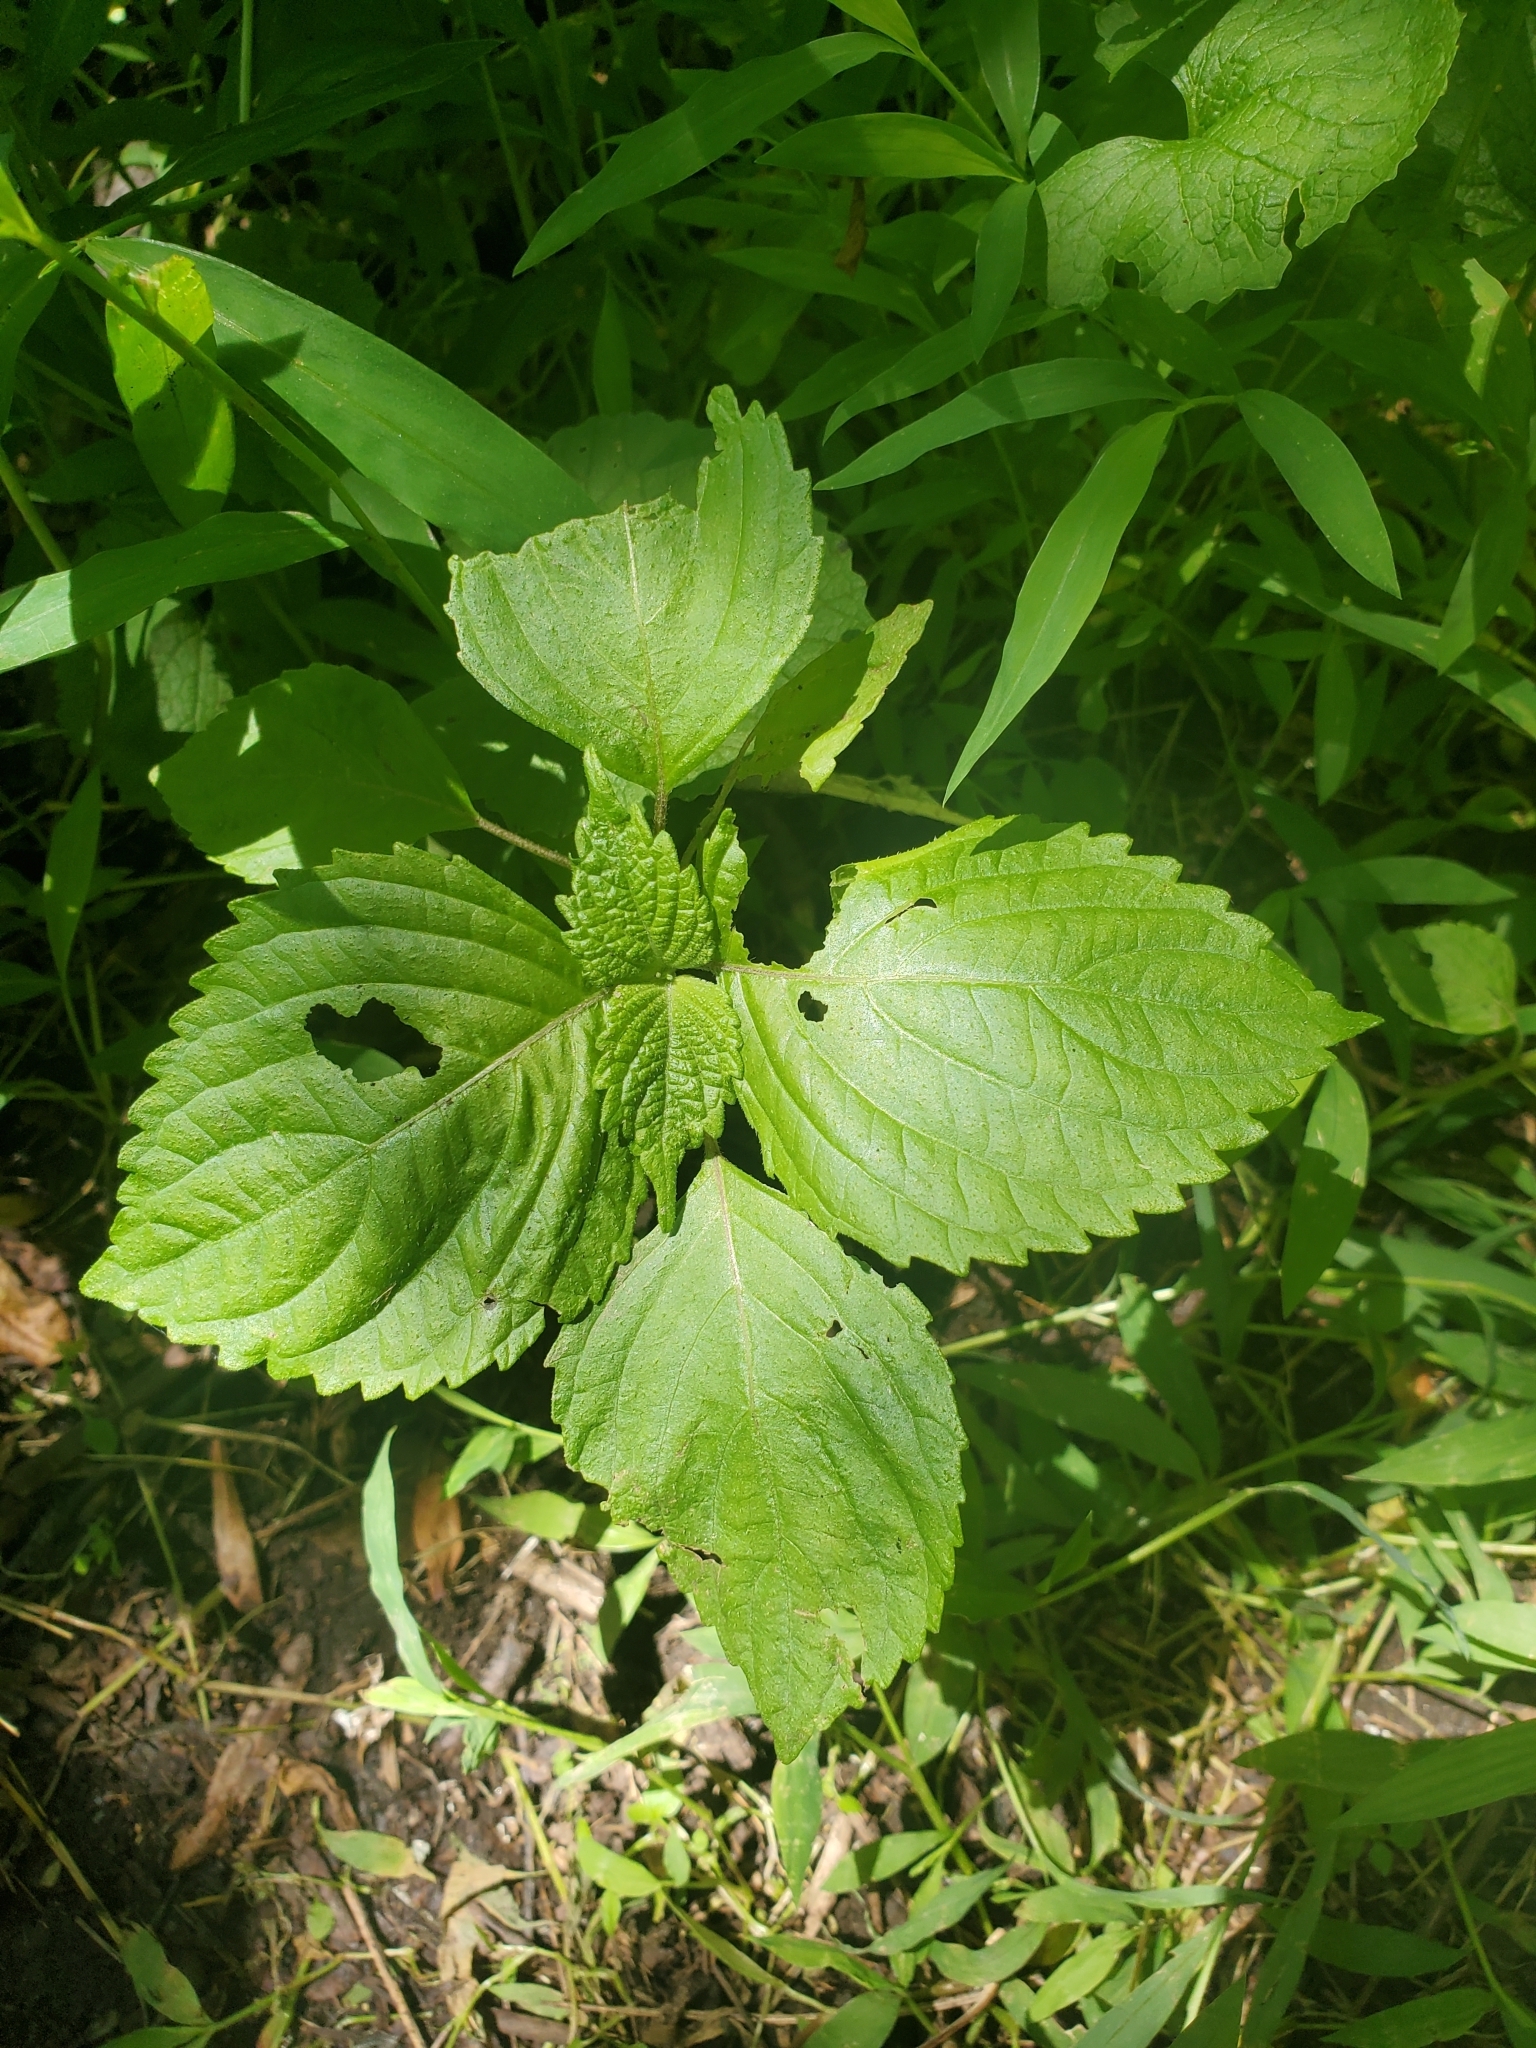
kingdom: Plantae
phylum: Tracheophyta
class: Magnoliopsida
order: Lamiales
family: Lamiaceae
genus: Perilla
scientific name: Perilla frutescens
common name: Perilla
